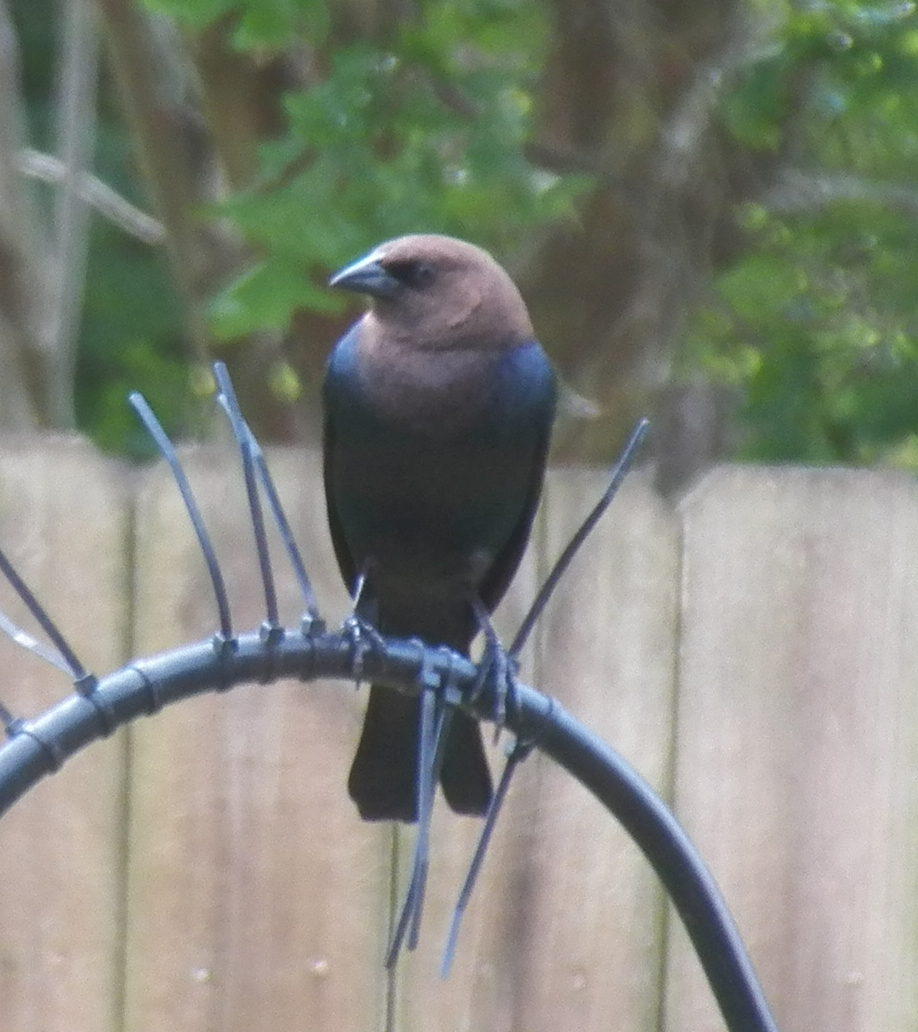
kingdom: Animalia
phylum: Chordata
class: Aves
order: Passeriformes
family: Icteridae
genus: Molothrus
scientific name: Molothrus ater
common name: Brown-headed cowbird
